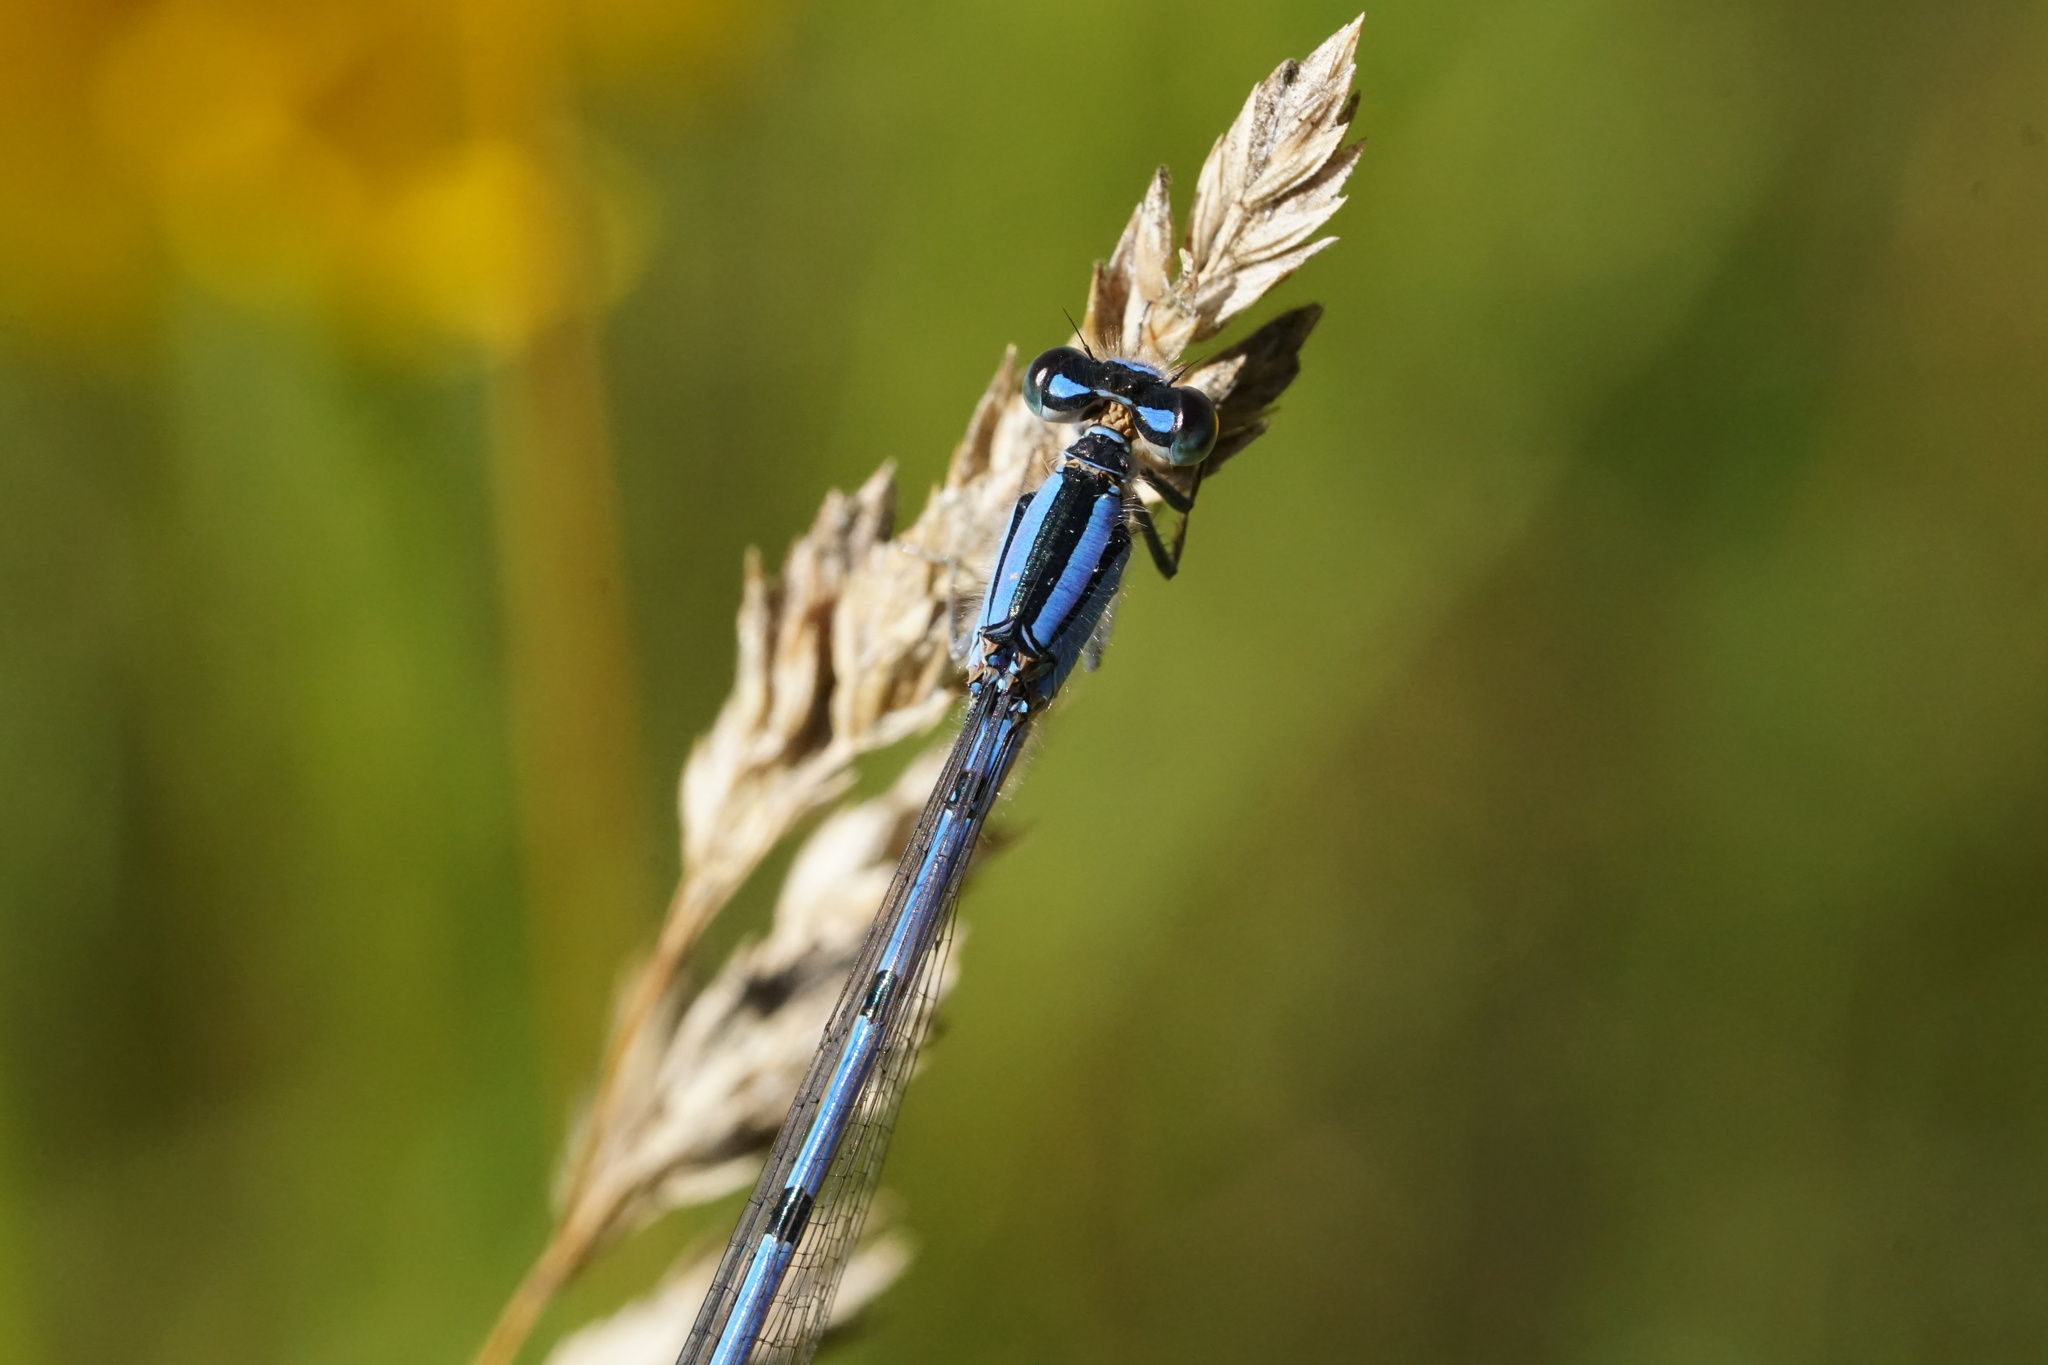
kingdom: Animalia
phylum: Arthropoda
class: Insecta
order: Odonata
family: Coenagrionidae
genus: Enallagma
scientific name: Enallagma civile
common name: Damselfly
